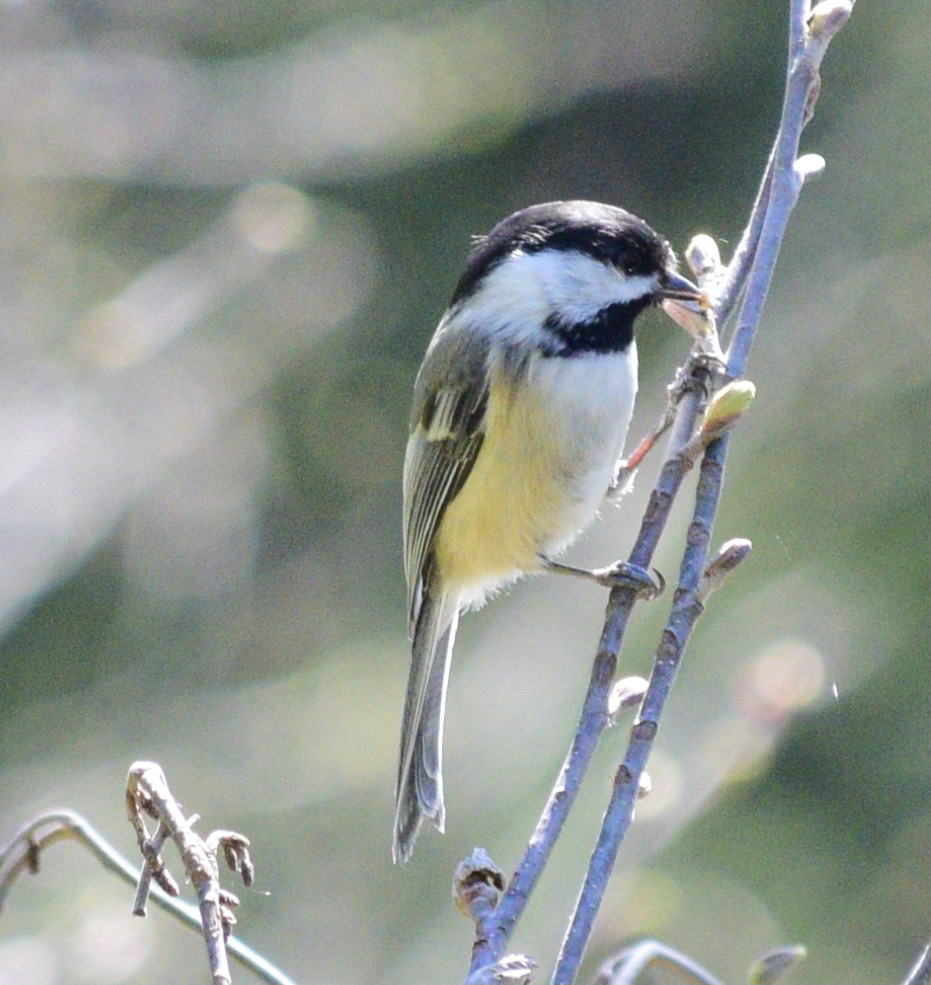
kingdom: Animalia
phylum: Chordata
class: Aves
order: Passeriformes
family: Paridae
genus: Poecile
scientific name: Poecile atricapillus
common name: Black-capped chickadee
